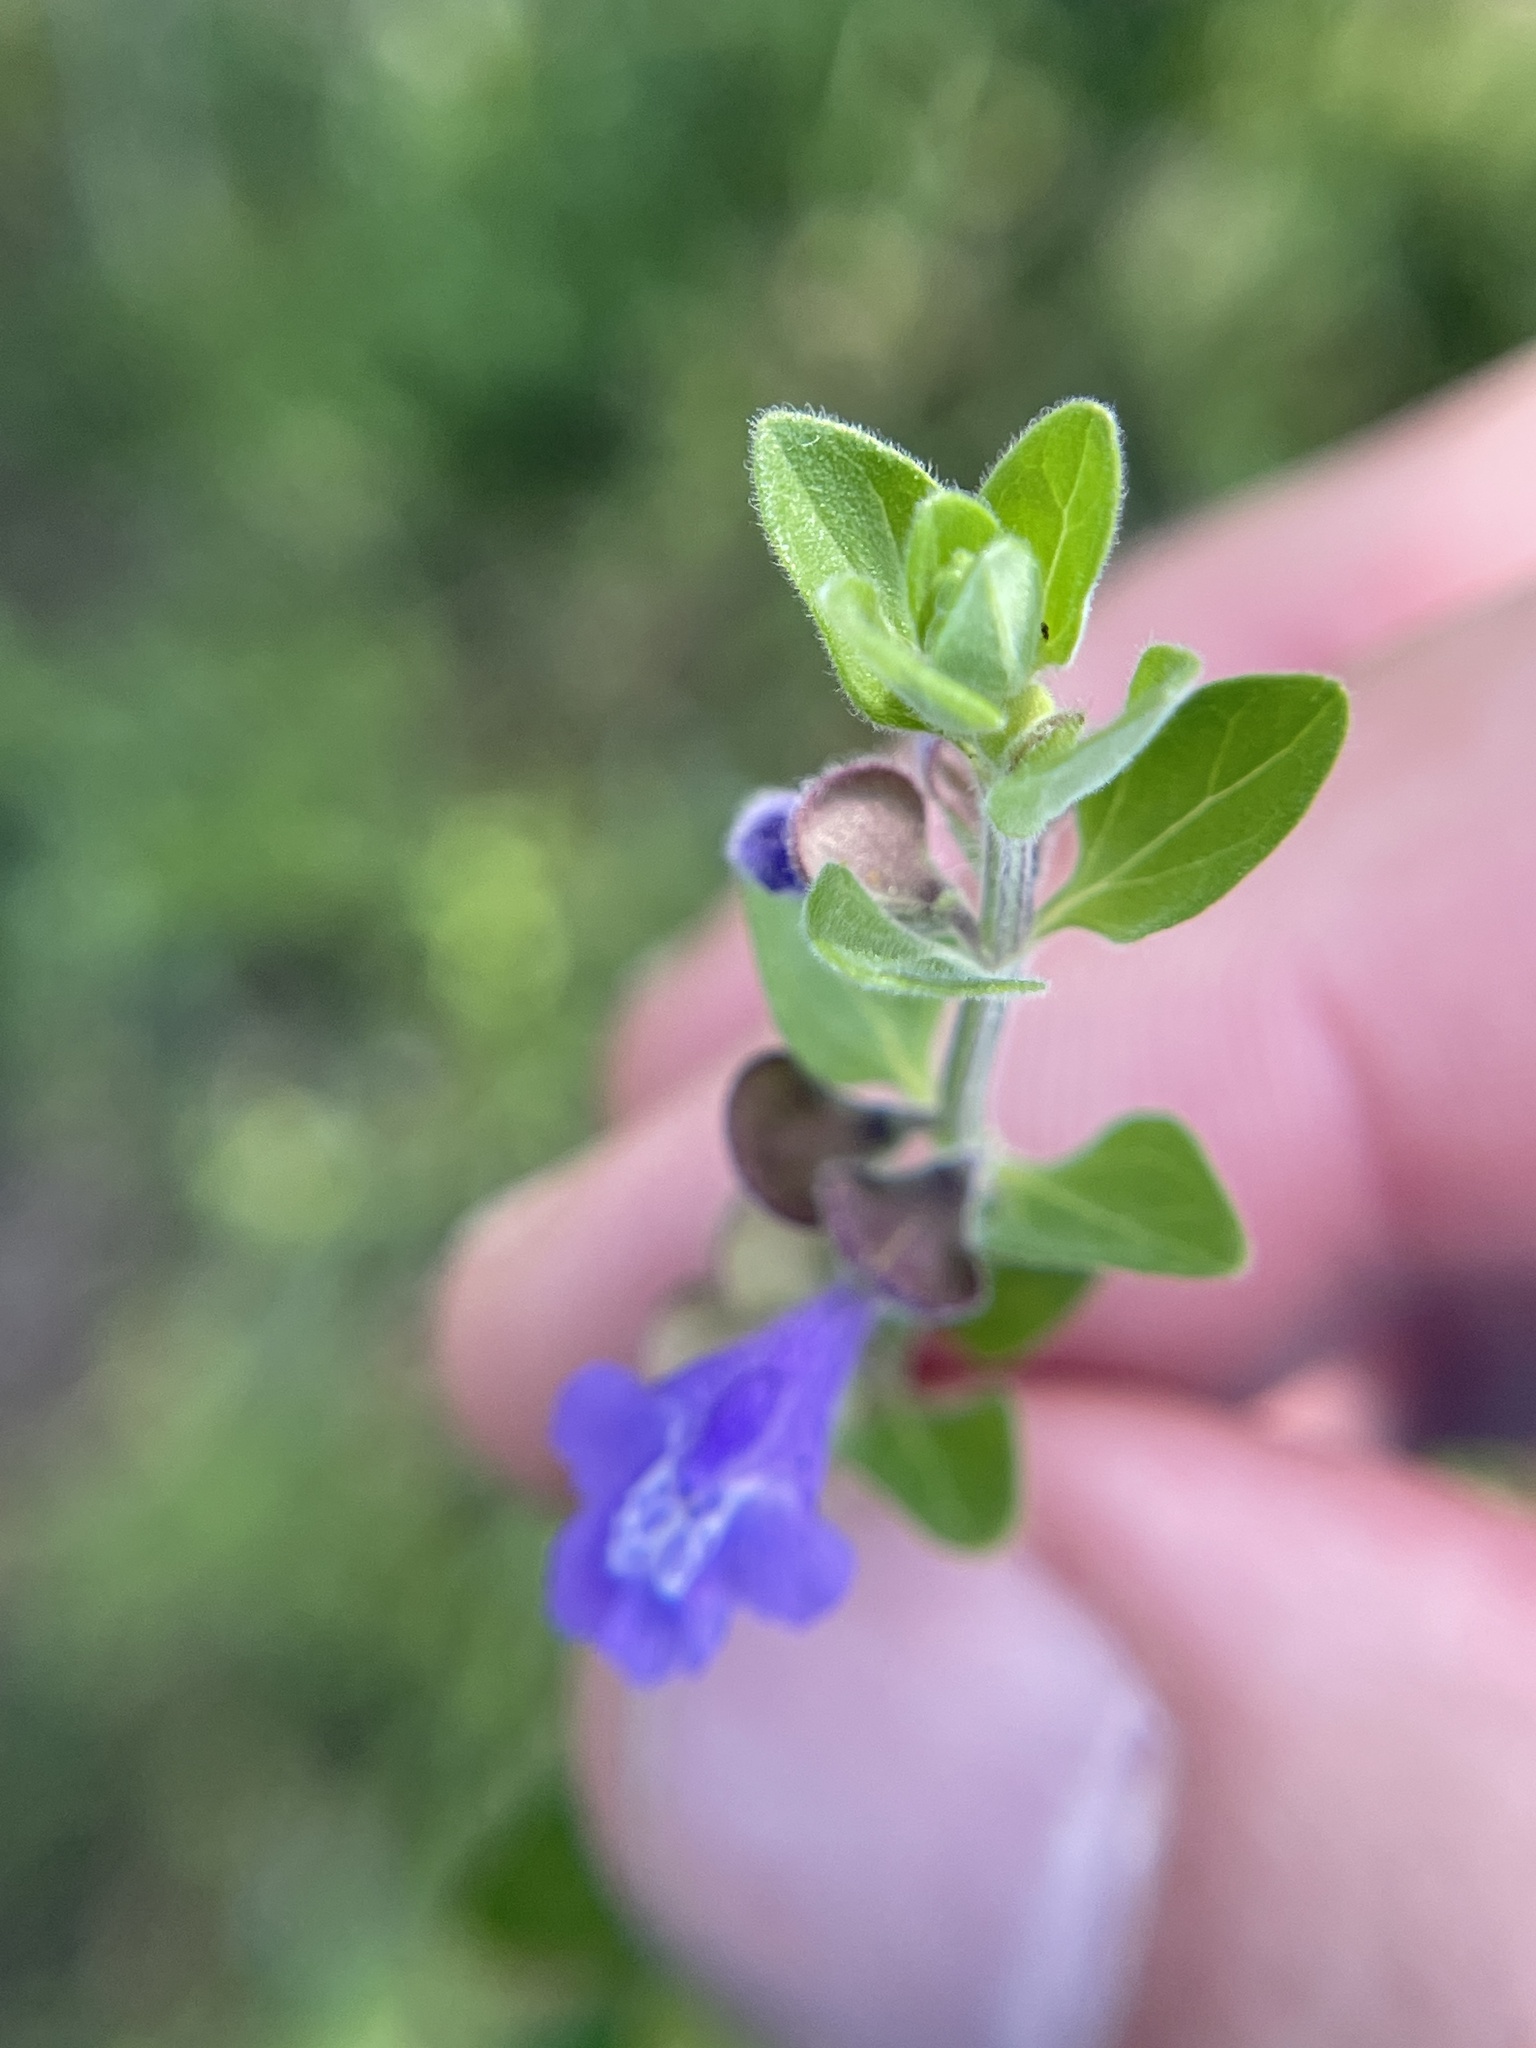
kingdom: Plantae
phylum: Tracheophyta
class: Magnoliopsida
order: Lamiales
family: Lamiaceae
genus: Scutellaria
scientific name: Scutellaria drummondii
